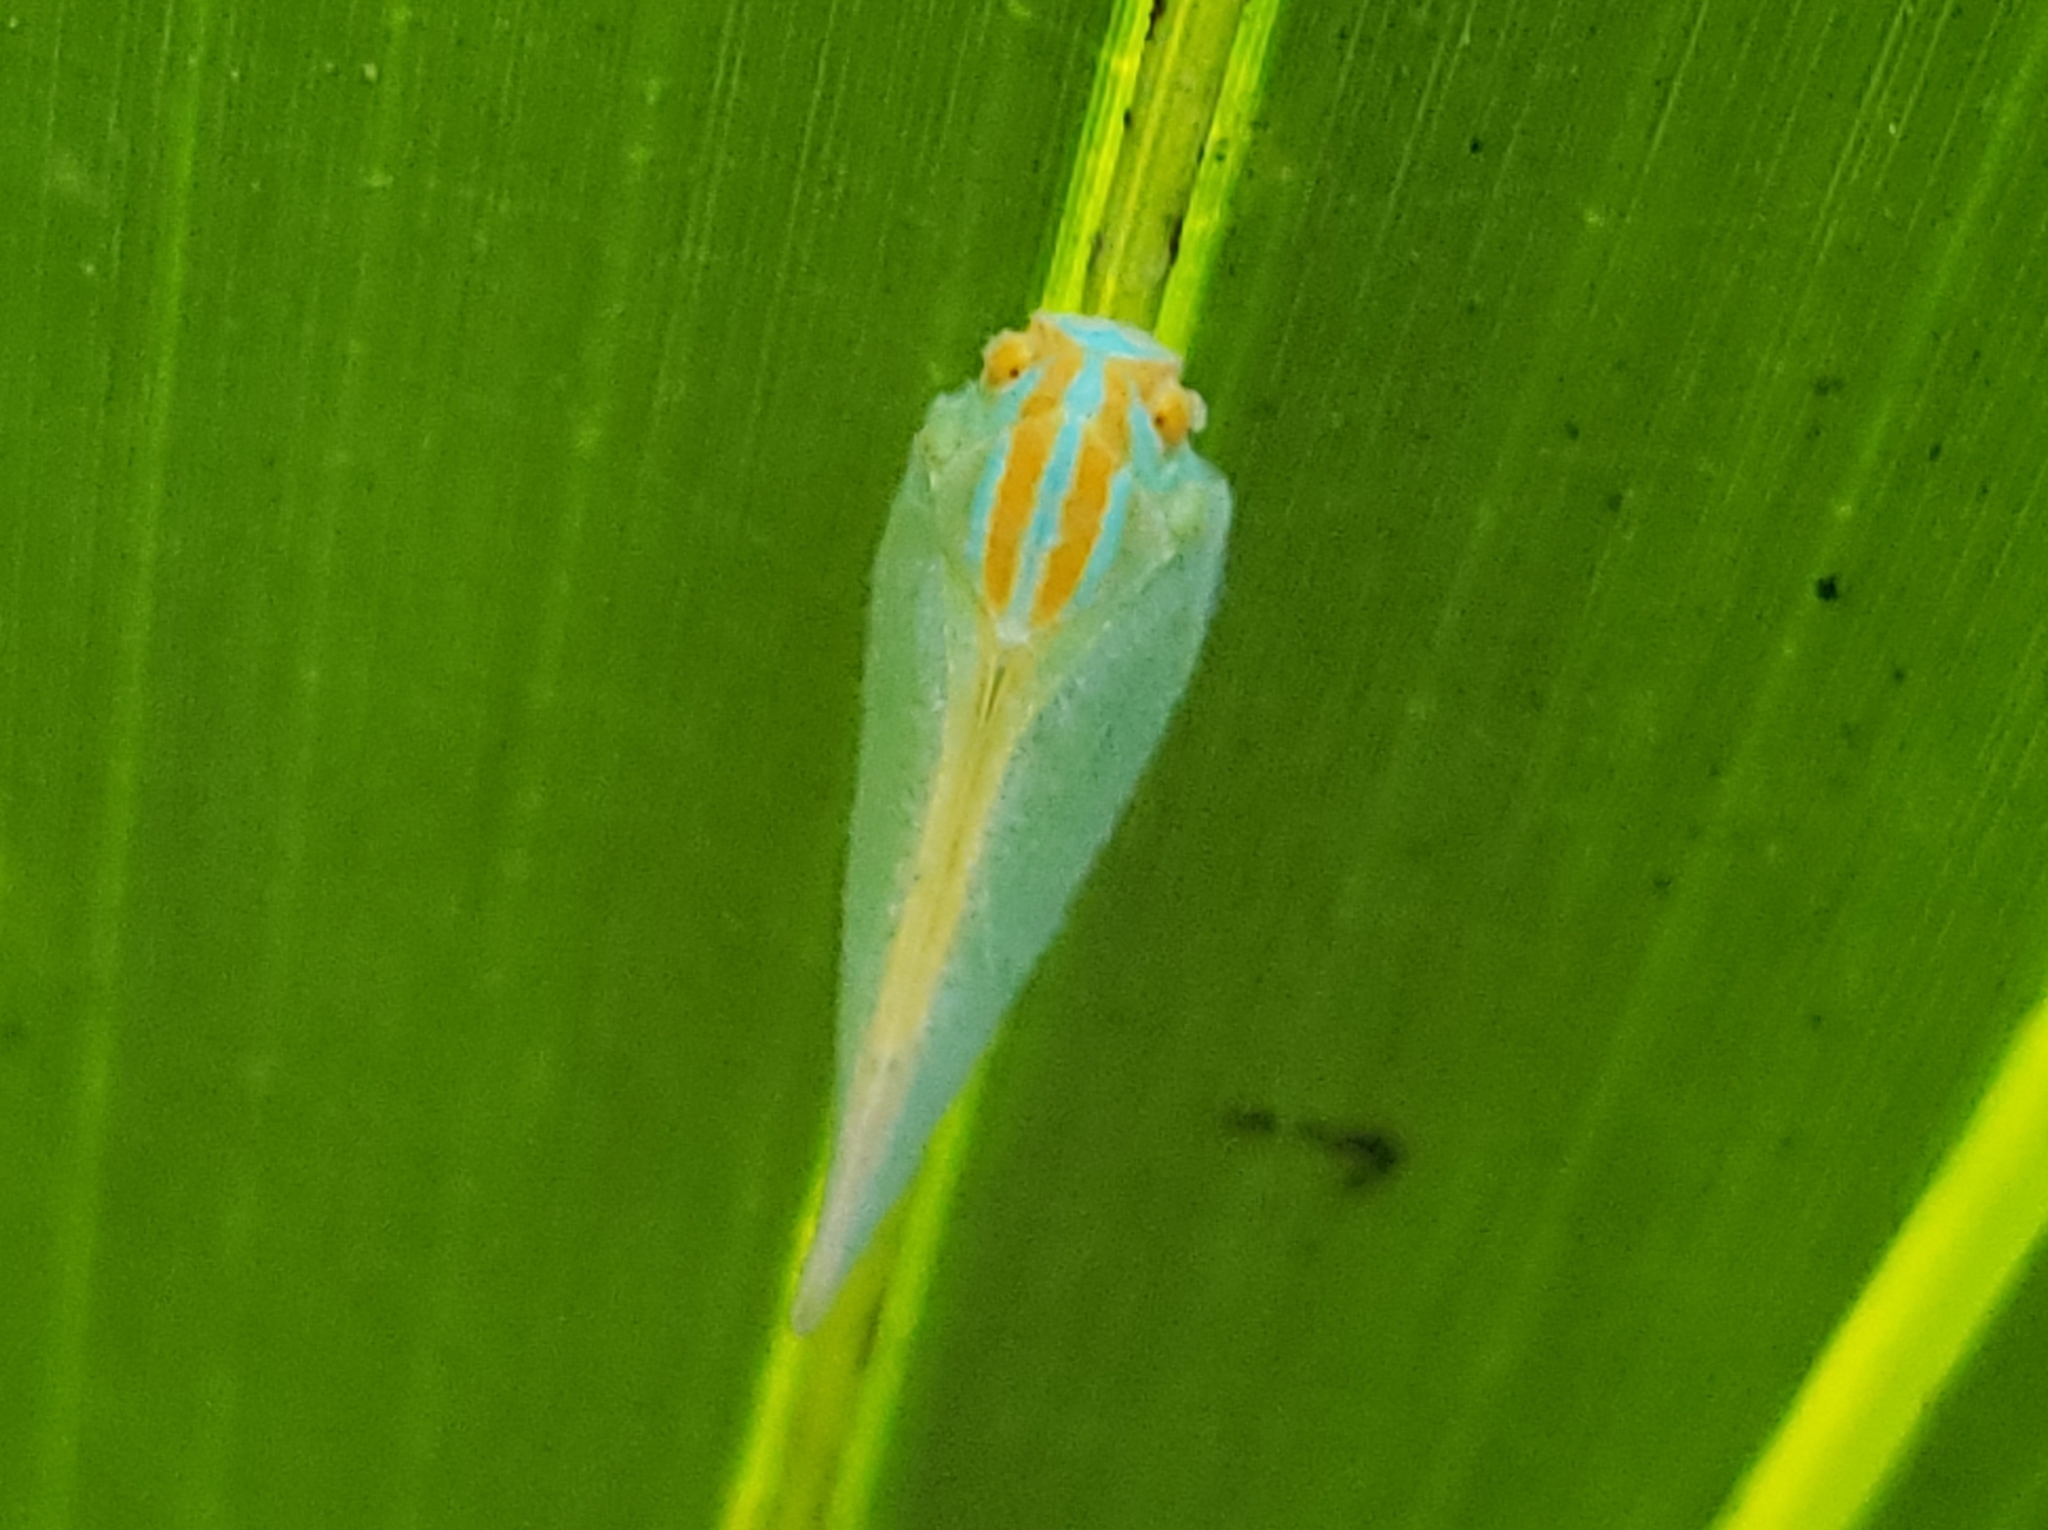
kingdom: Animalia
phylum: Arthropoda
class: Insecta
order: Hemiptera
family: Flatidae
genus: Ormenaria
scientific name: Ormenaria rufifascia
